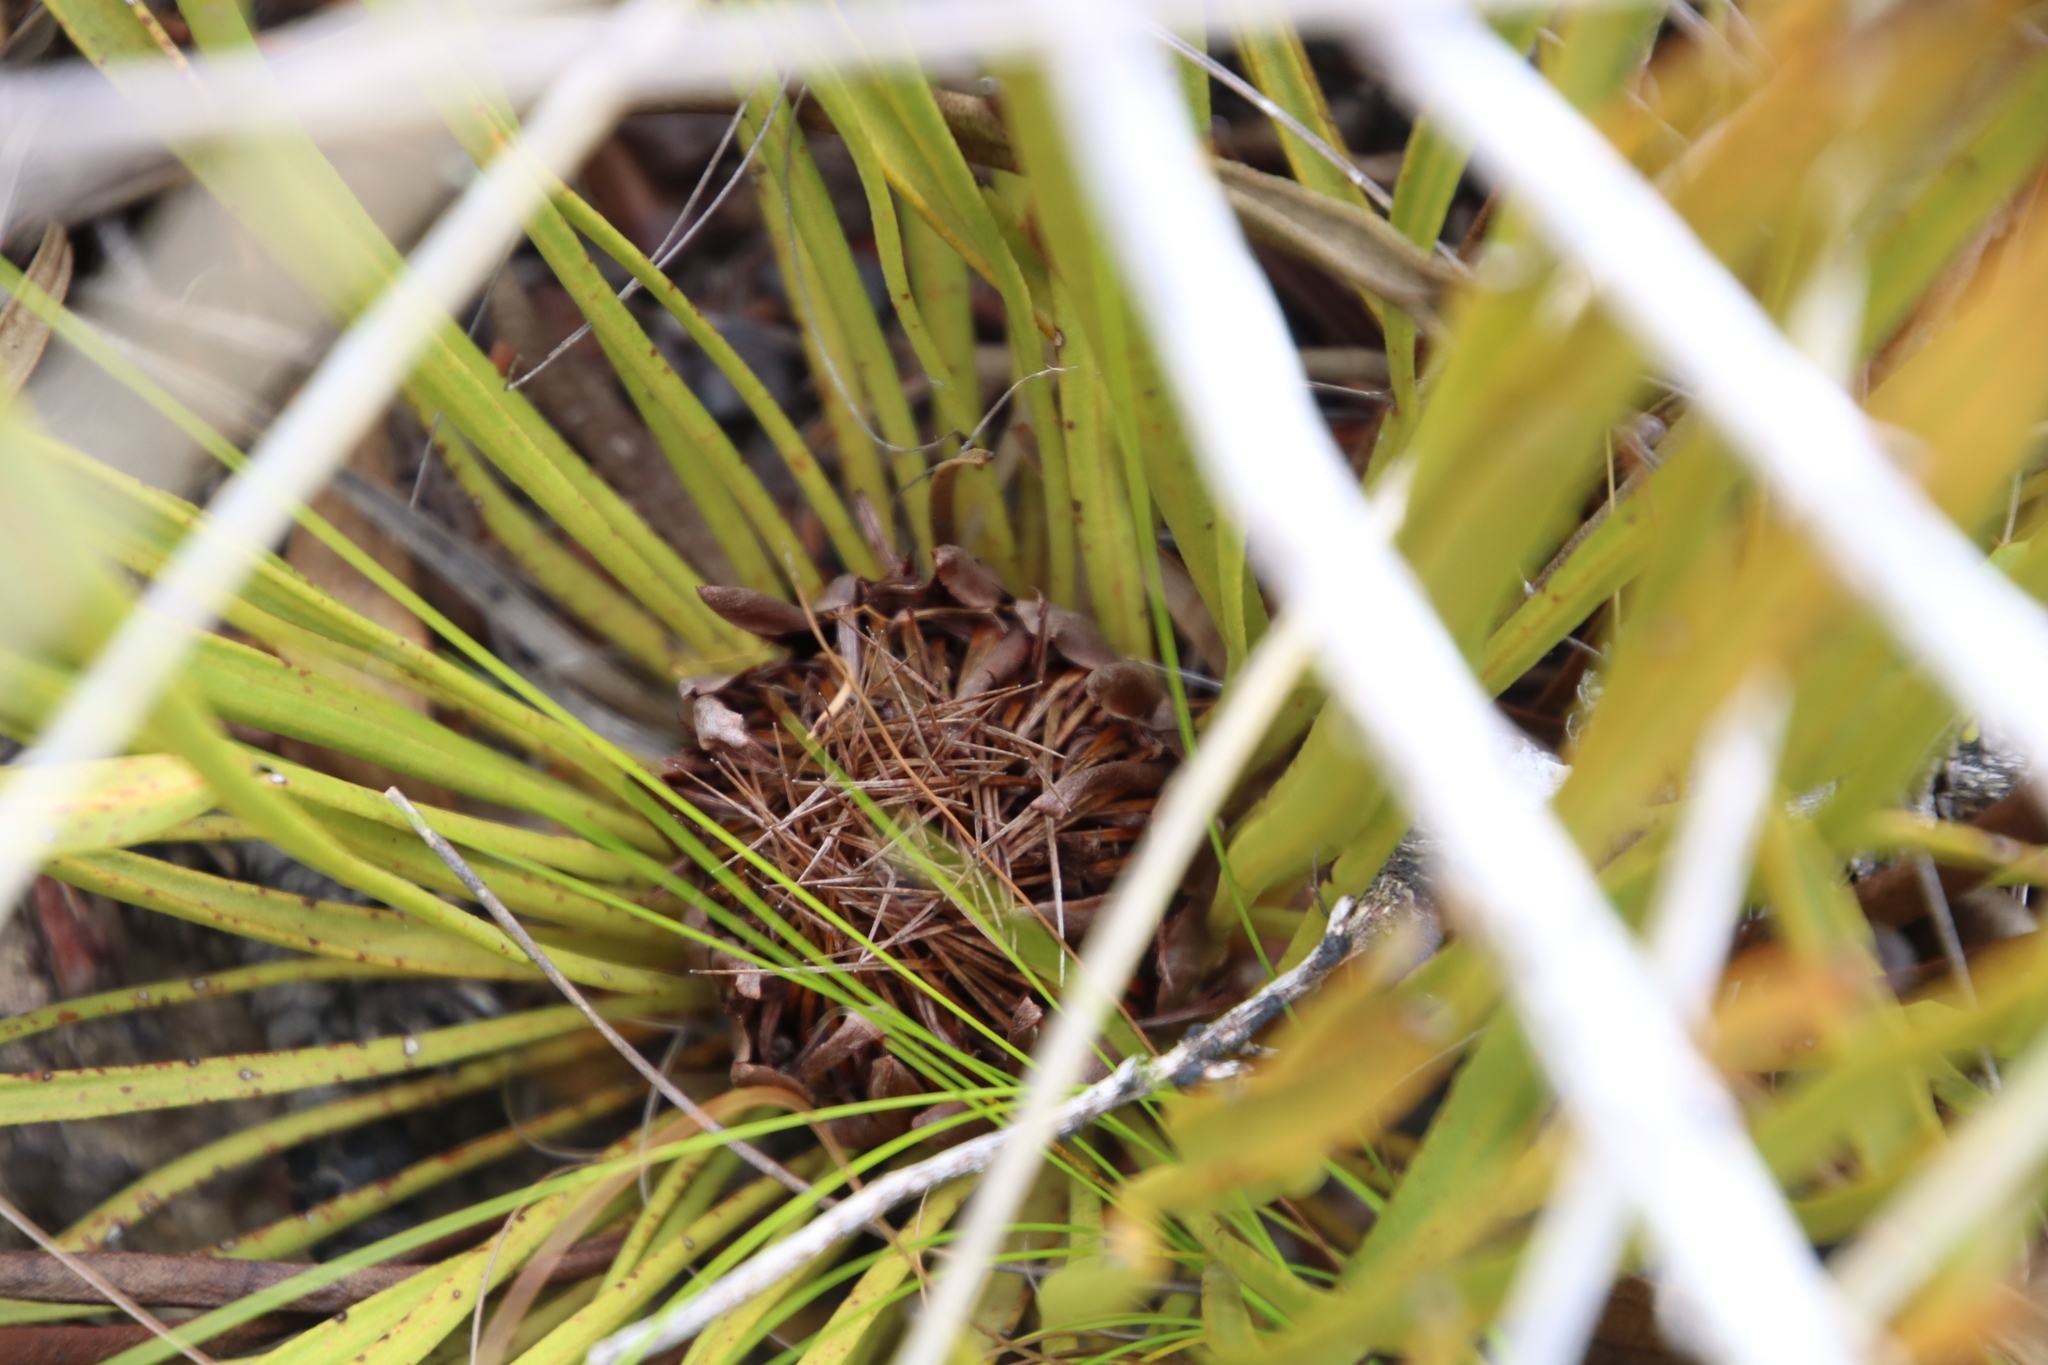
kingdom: Plantae
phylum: Tracheophyta
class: Magnoliopsida
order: Proteales
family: Proteaceae
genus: Protea
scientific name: Protea scabra
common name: Sandpaper-leaf sugarbush
